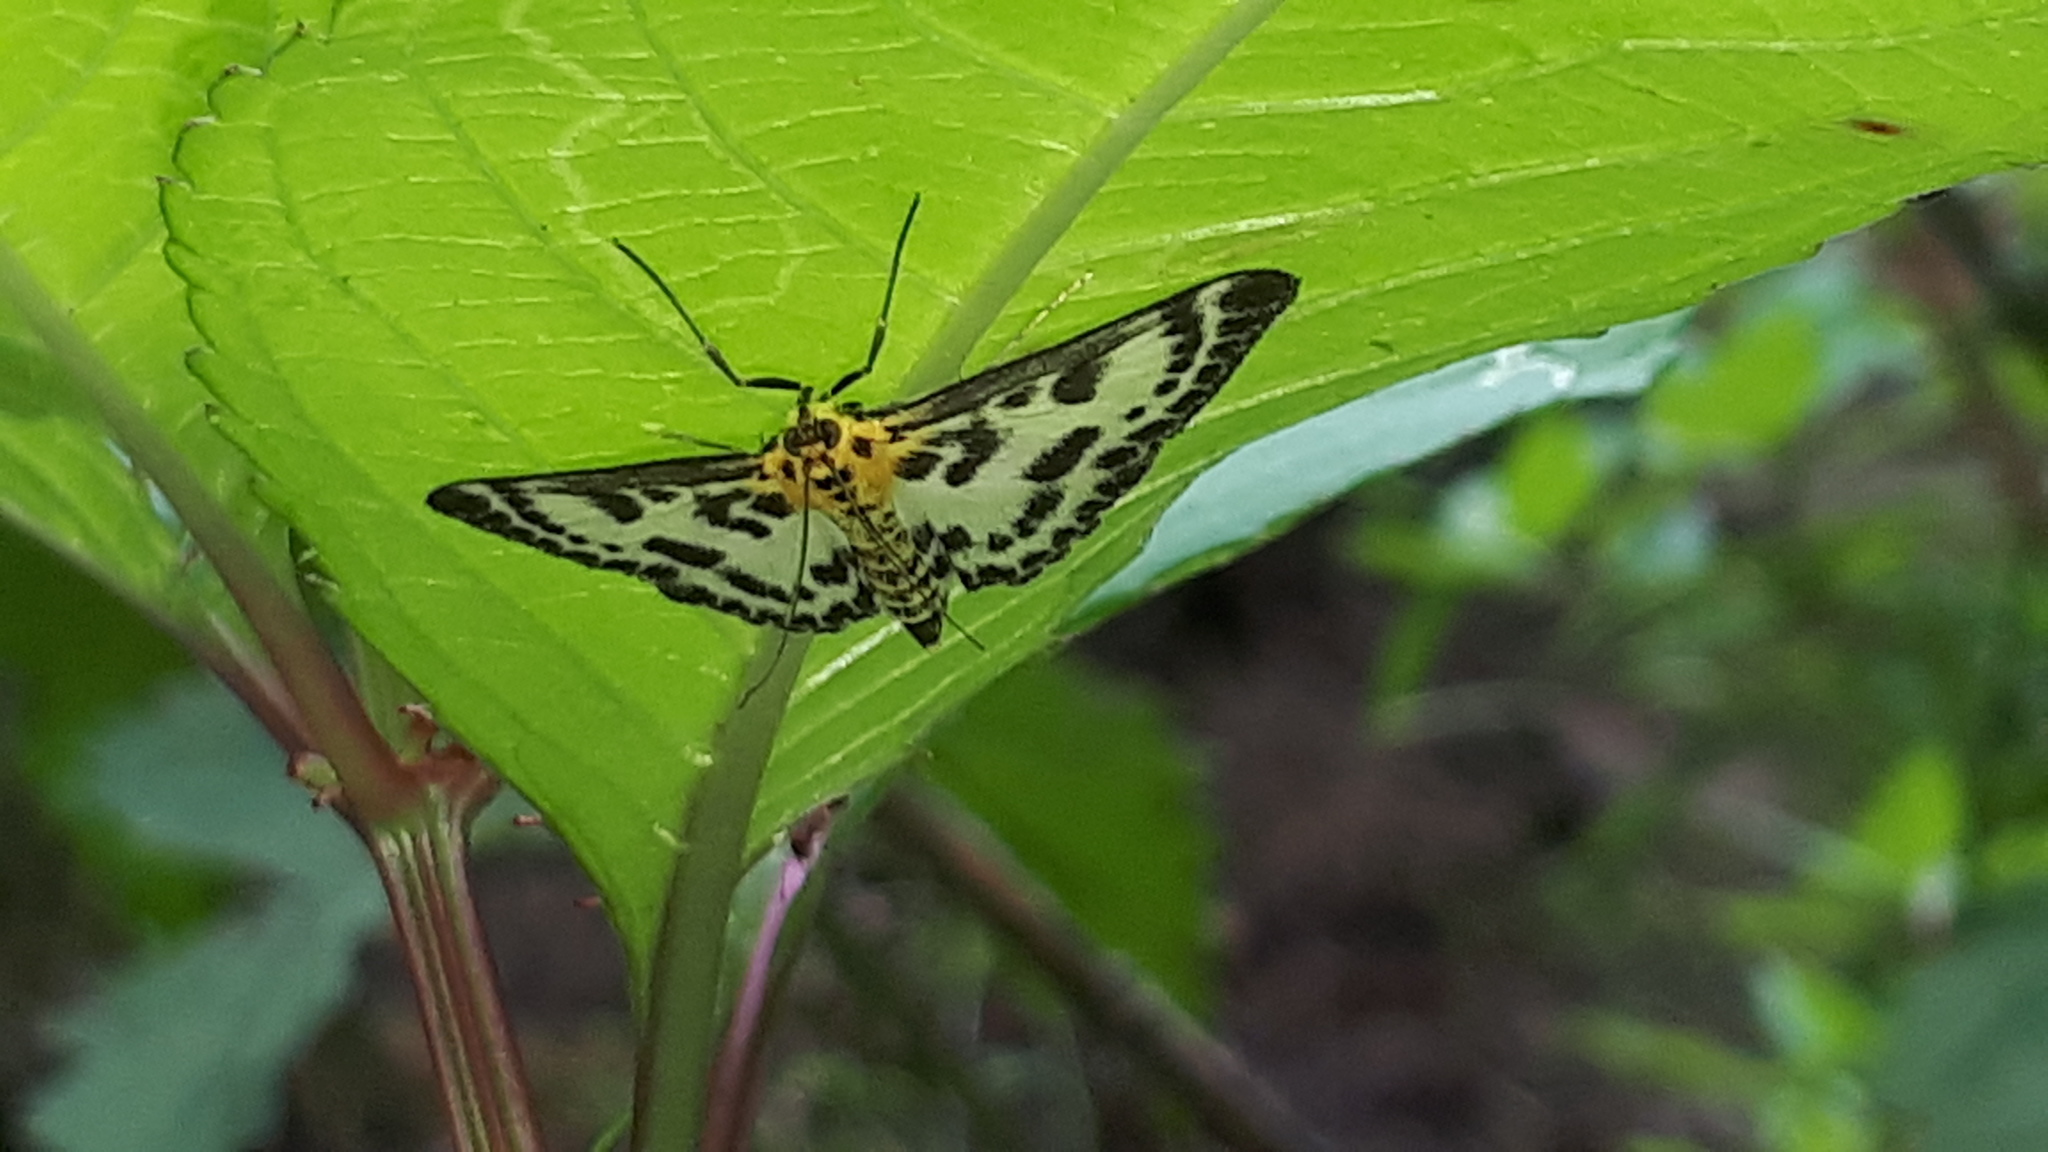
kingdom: Animalia
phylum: Arthropoda
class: Insecta
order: Lepidoptera
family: Crambidae
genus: Anania
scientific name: Anania hortulata
